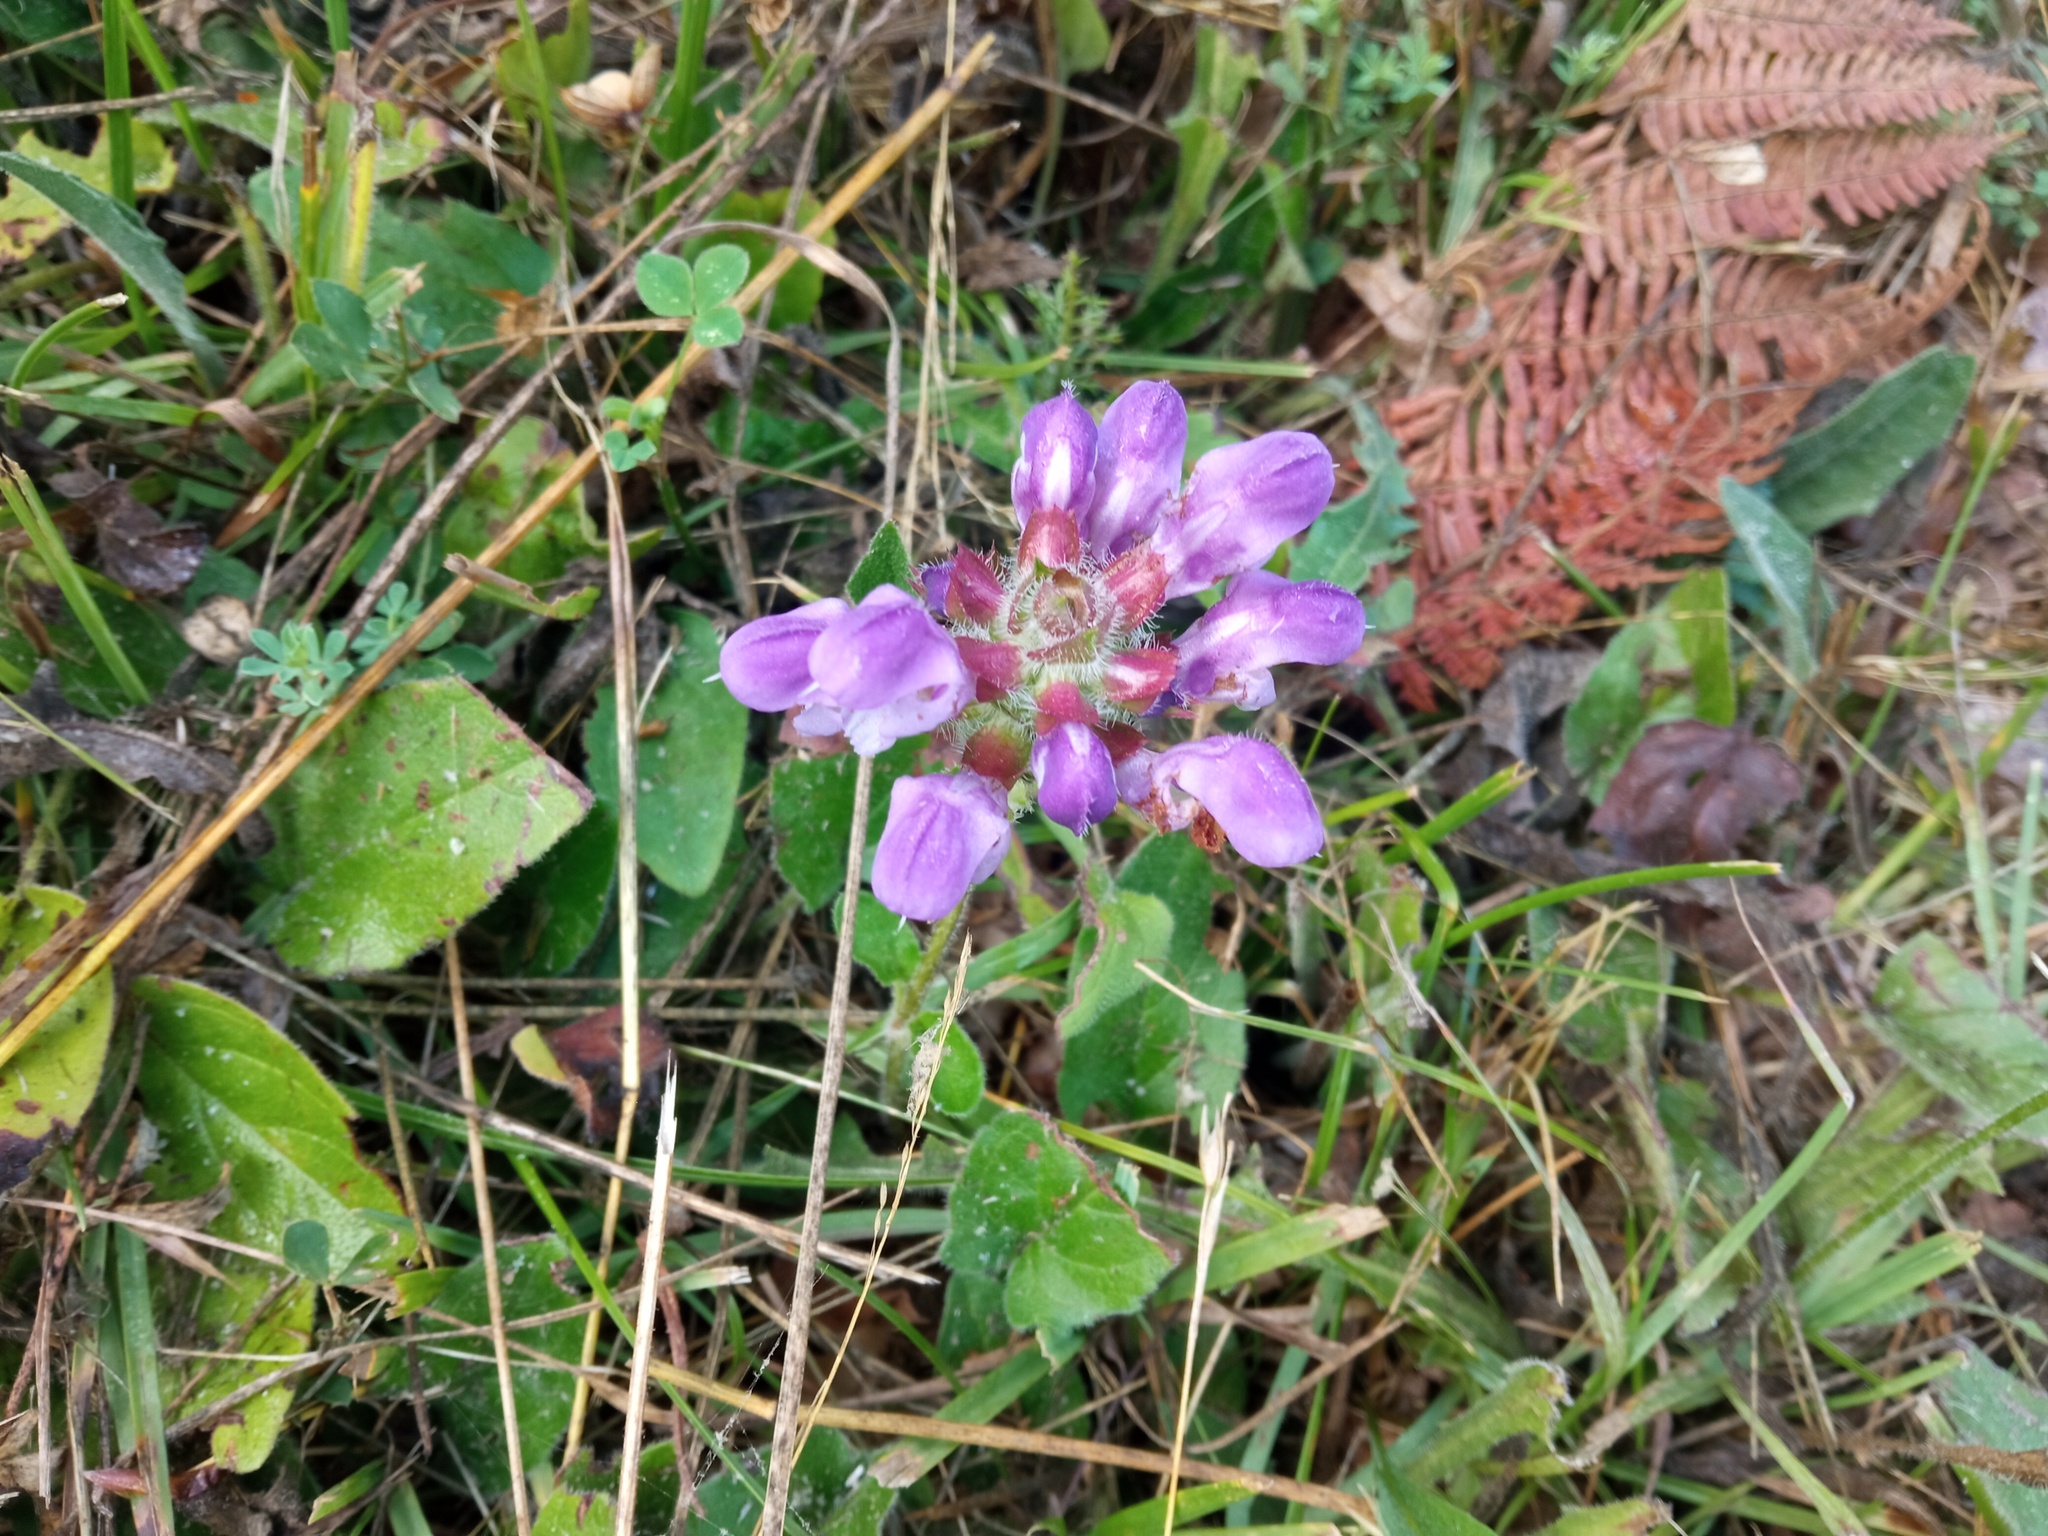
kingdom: Plantae
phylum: Tracheophyta
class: Magnoliopsida
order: Lamiales
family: Lamiaceae
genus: Prunella
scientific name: Prunella grandiflora
